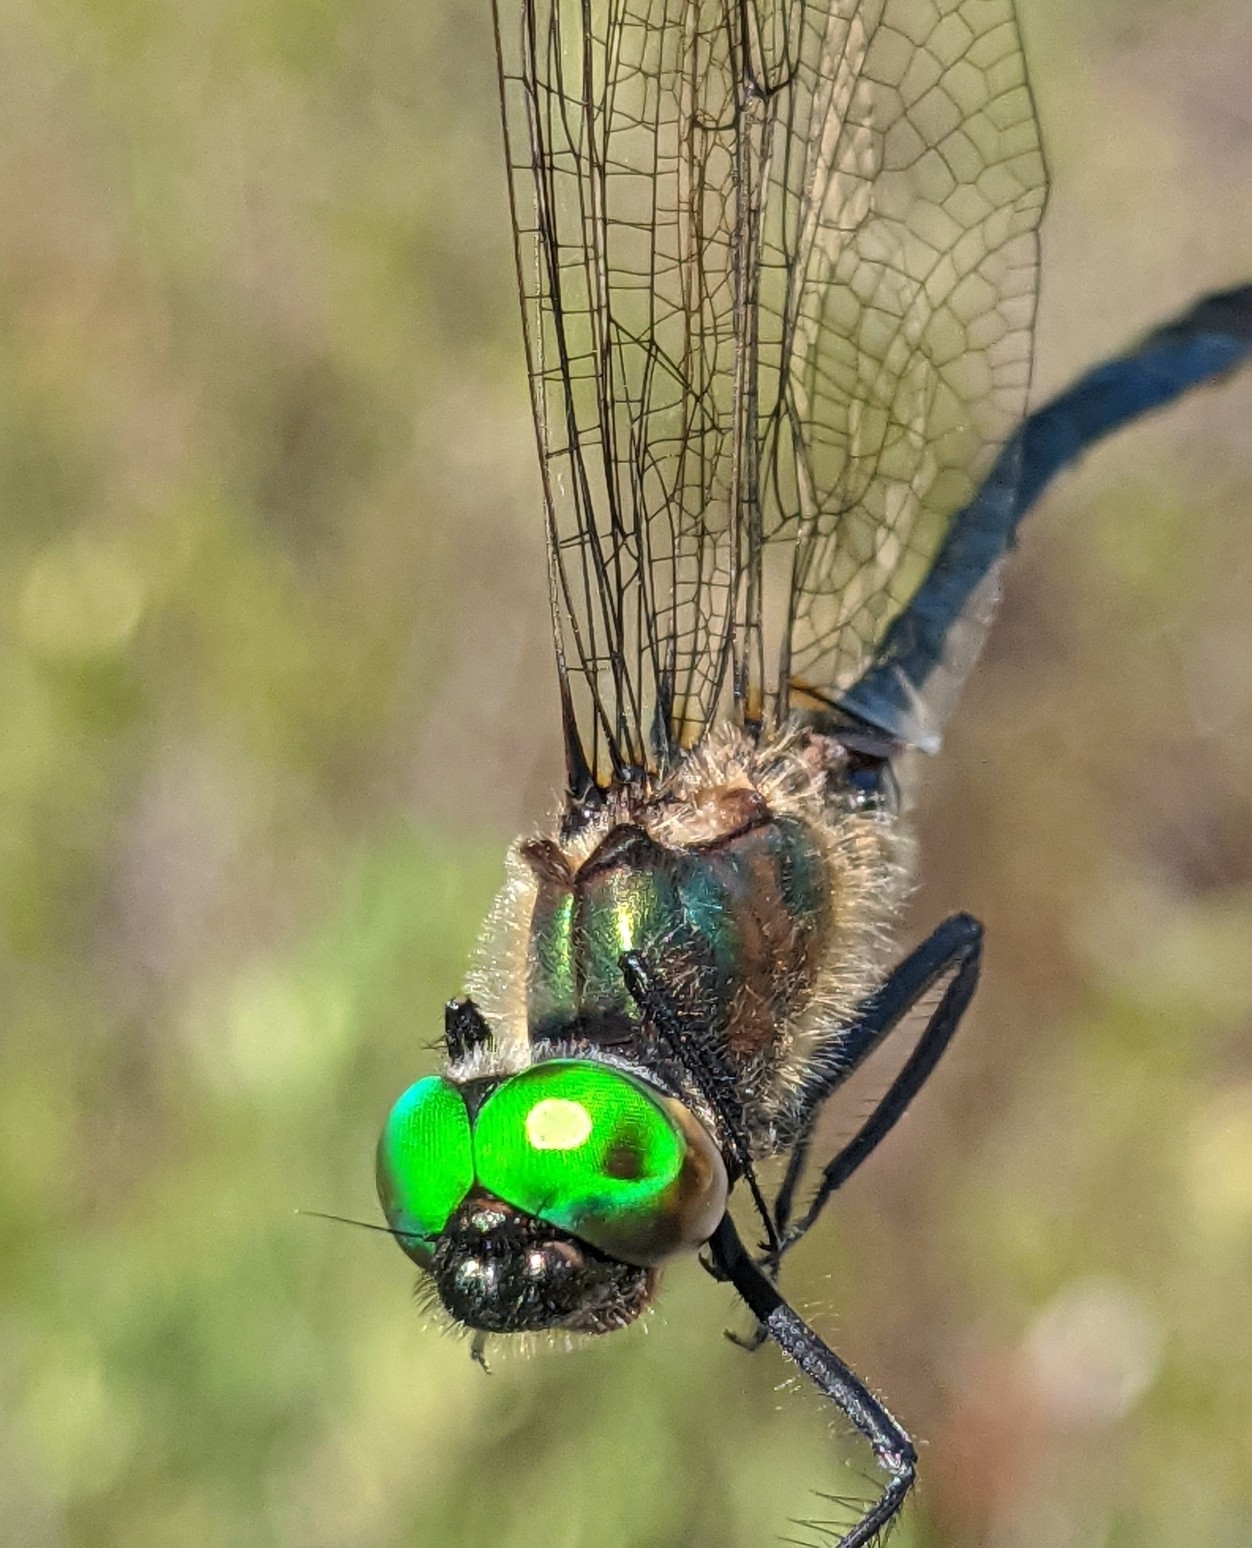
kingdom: Animalia
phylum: Arthropoda
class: Insecta
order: Odonata
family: Corduliidae
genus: Dorocordulia
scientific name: Dorocordulia libera
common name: Racket-tailed emerald
